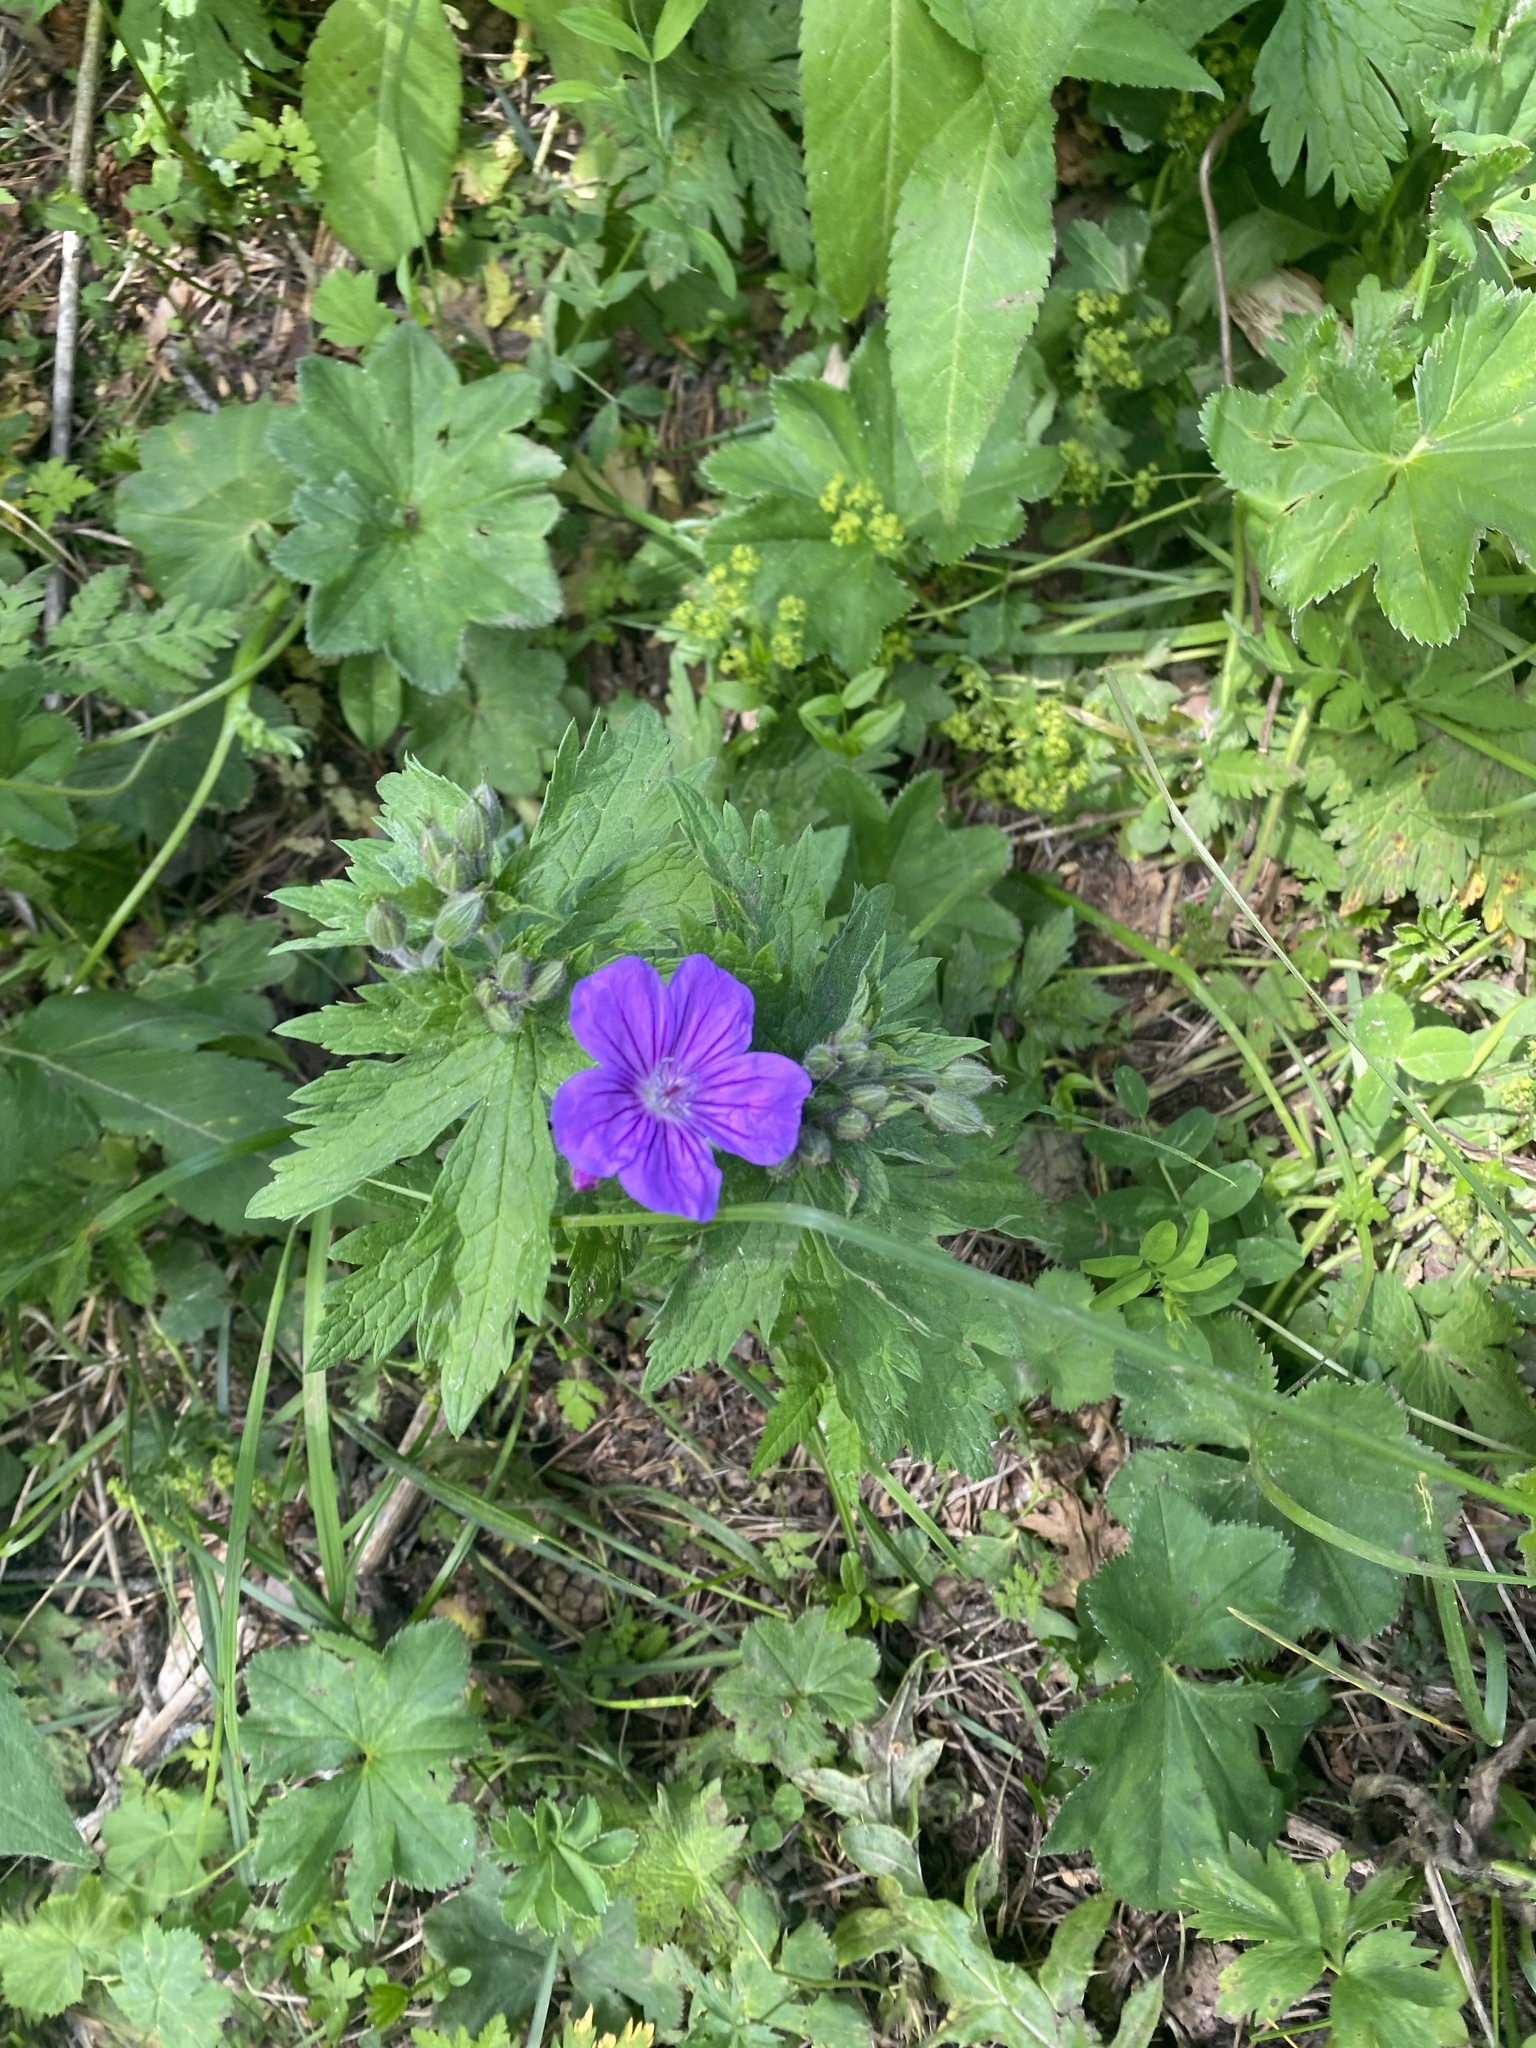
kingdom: Plantae
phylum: Tracheophyta
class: Magnoliopsida
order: Geraniales
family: Geraniaceae
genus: Geranium
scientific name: Geranium sylvaticum
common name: Wood crane's-bill
